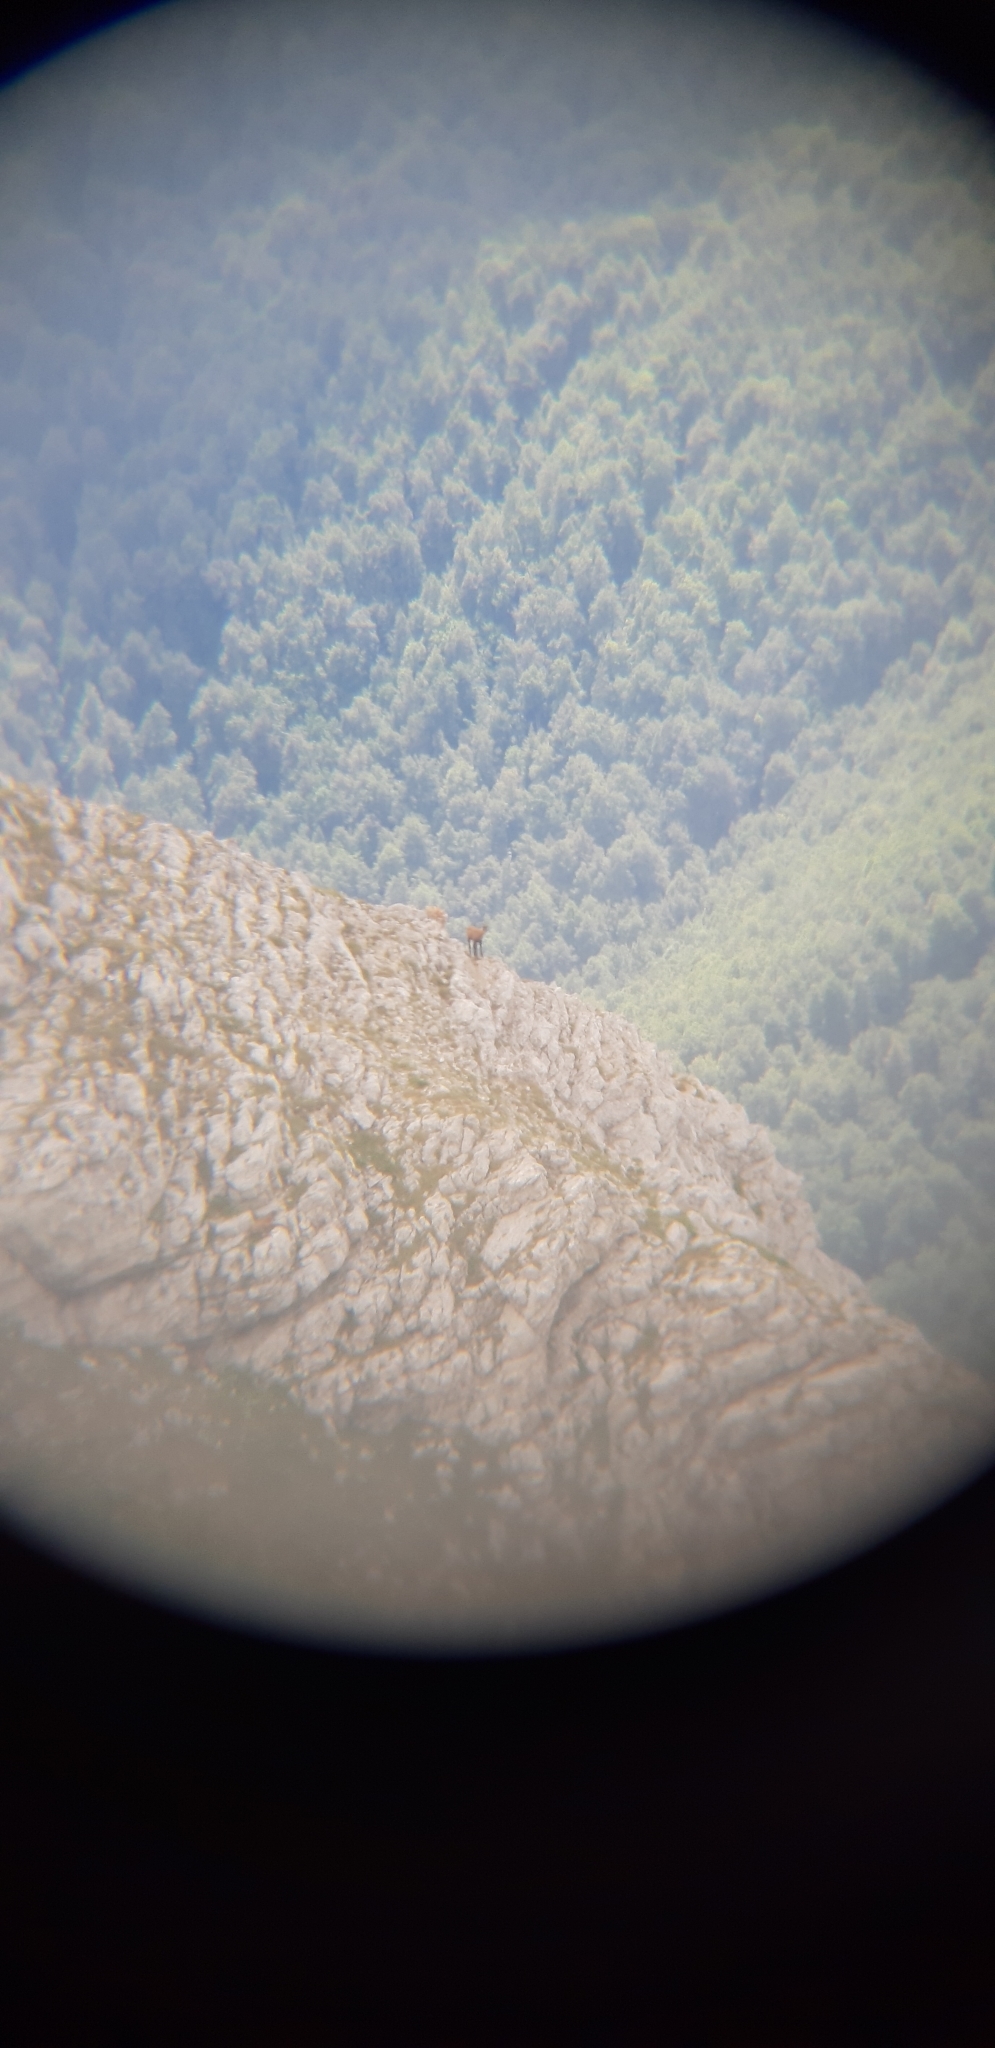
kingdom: Animalia
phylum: Chordata
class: Mammalia
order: Artiodactyla
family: Bovidae
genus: Rupicapra
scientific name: Rupicapra pyrenaica
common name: Pyrenean chamois
